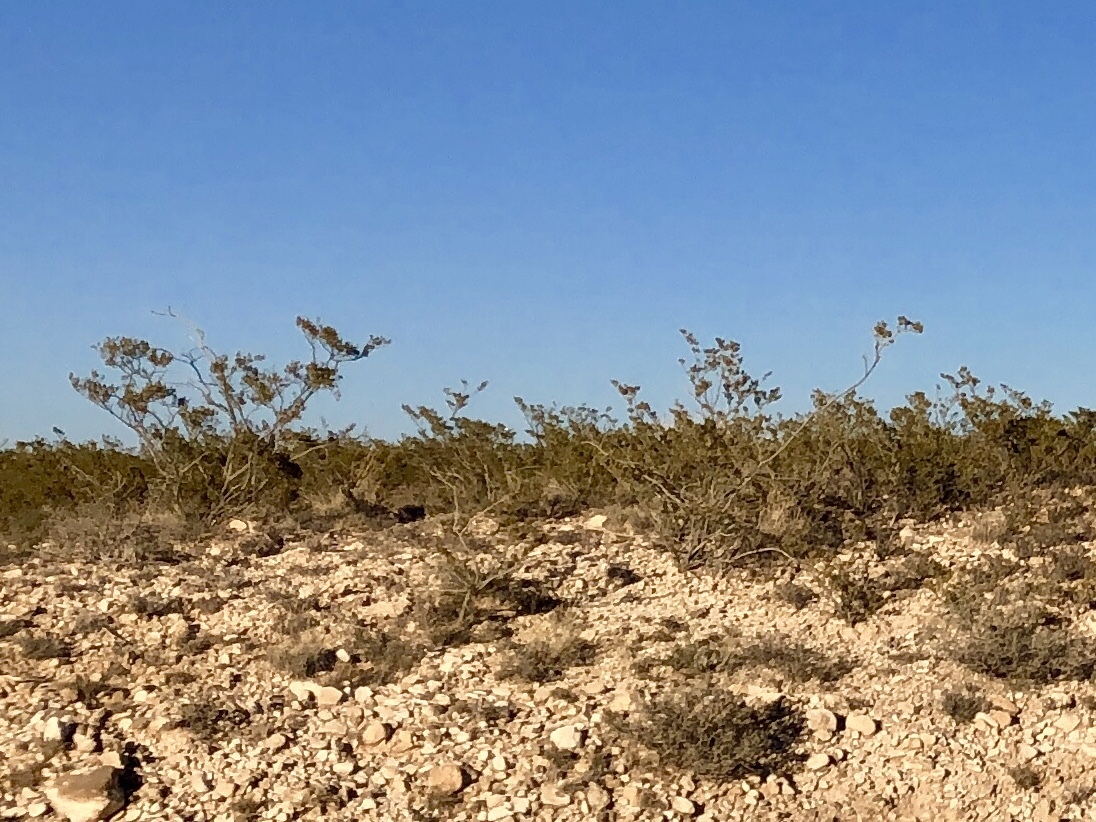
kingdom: Plantae
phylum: Tracheophyta
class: Magnoliopsida
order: Zygophyllales
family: Zygophyllaceae
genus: Larrea
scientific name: Larrea tridentata
